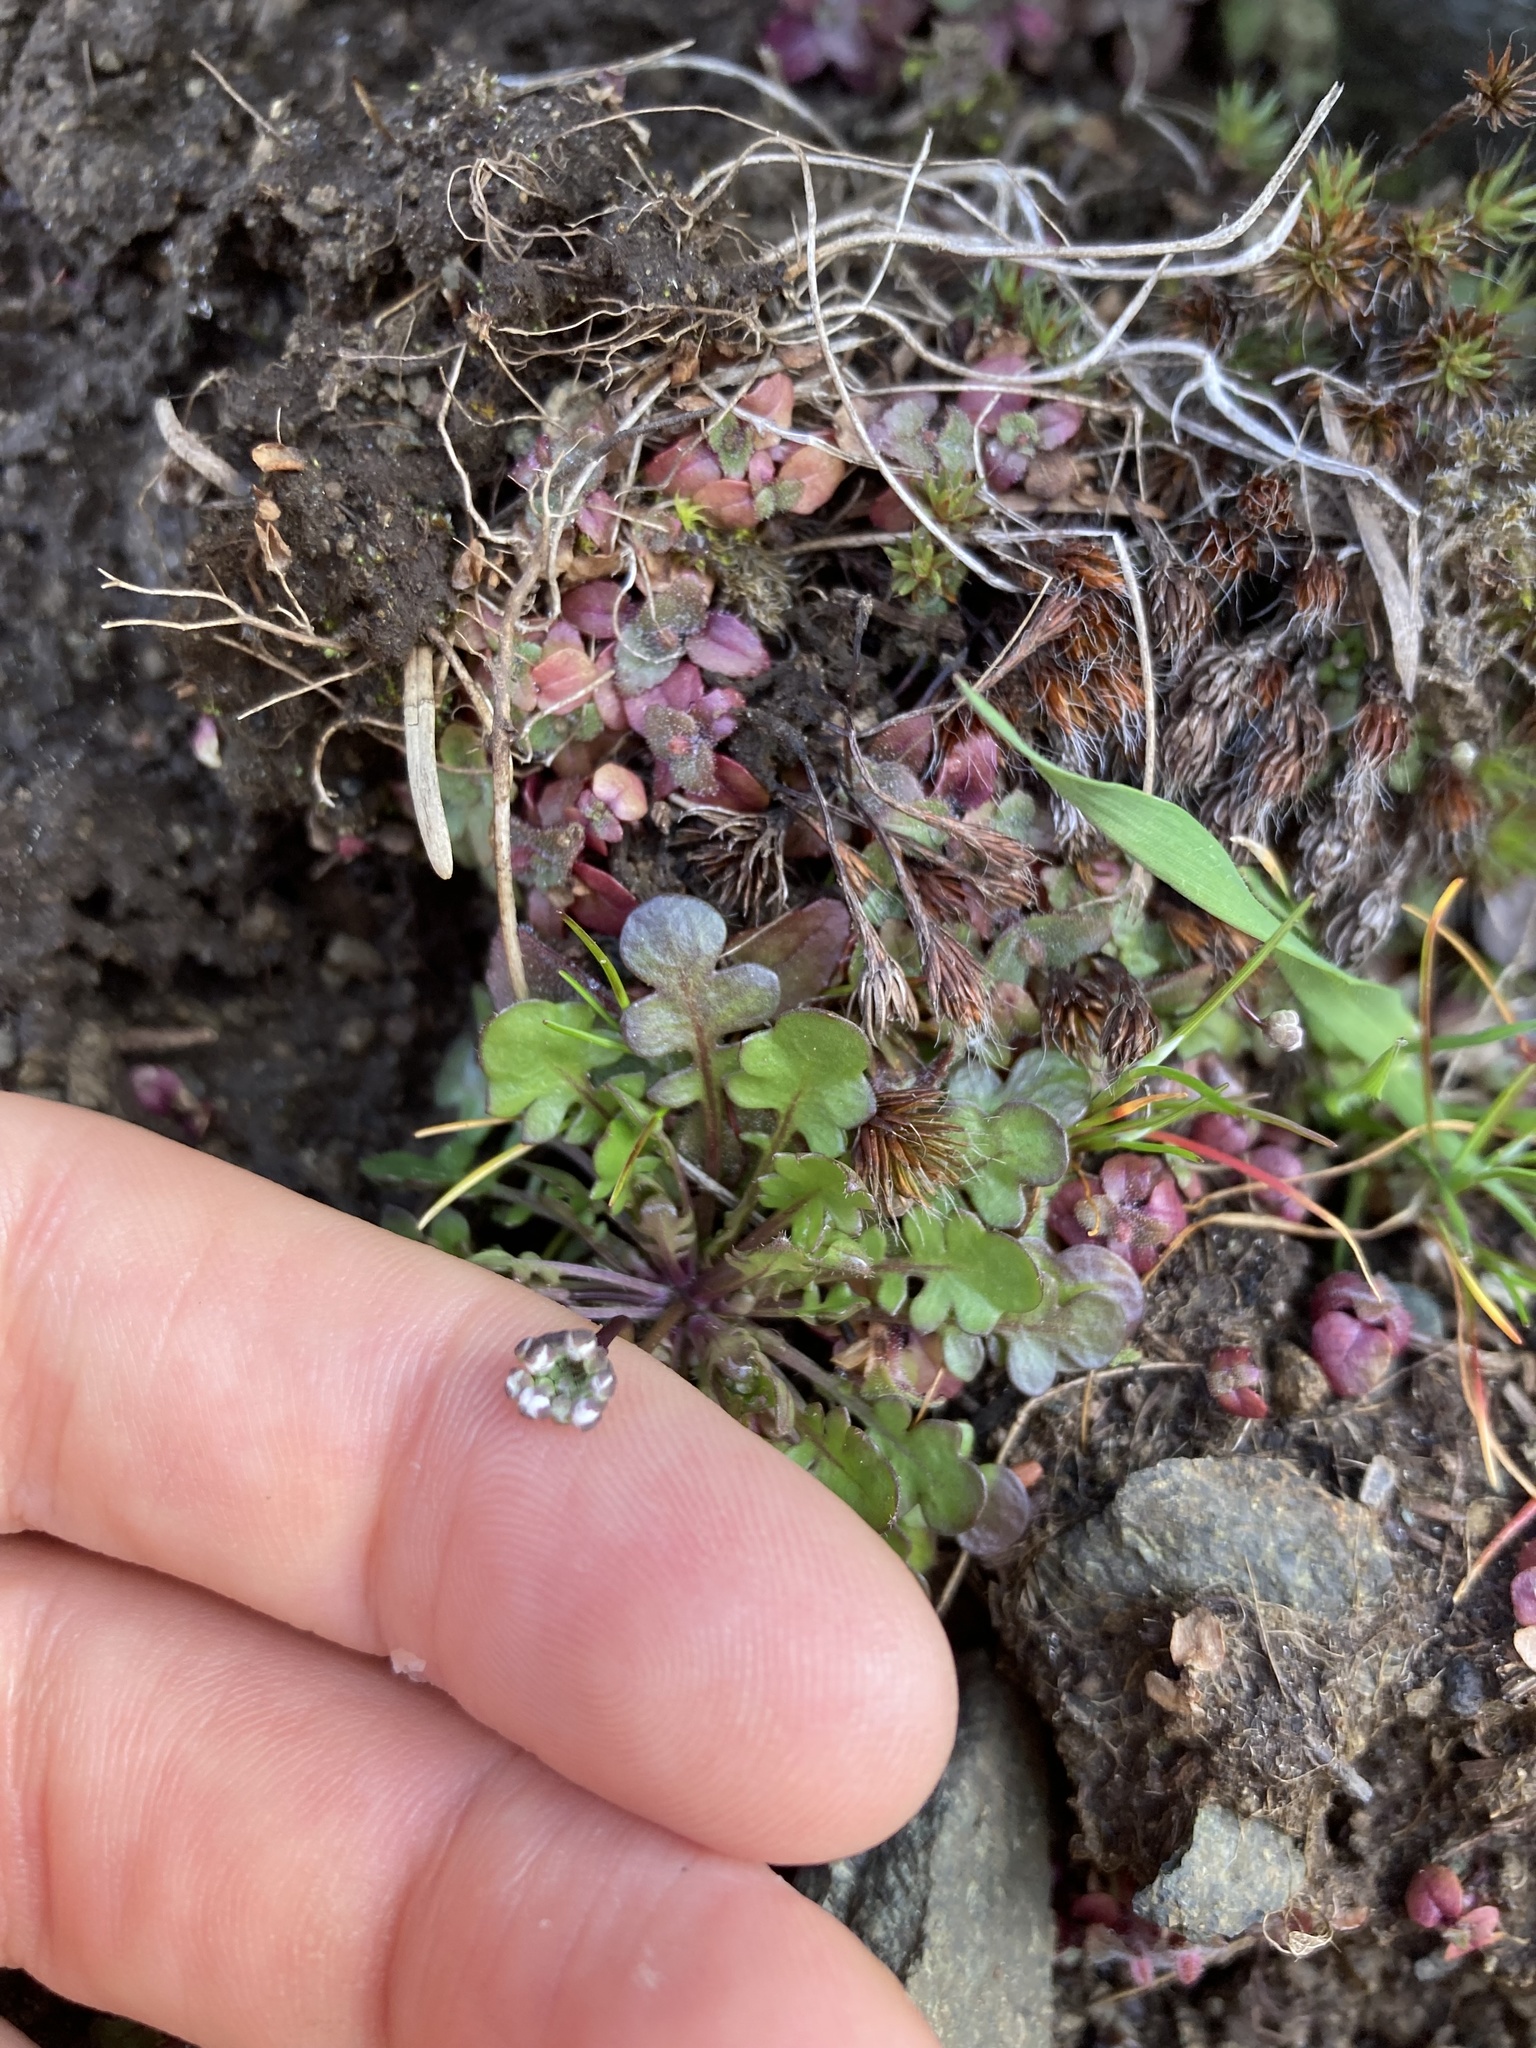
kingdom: Plantae
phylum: Tracheophyta
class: Magnoliopsida
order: Brassicales
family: Brassicaceae
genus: Teesdalia
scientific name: Teesdalia nudicaulis
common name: Shepherd's cress
